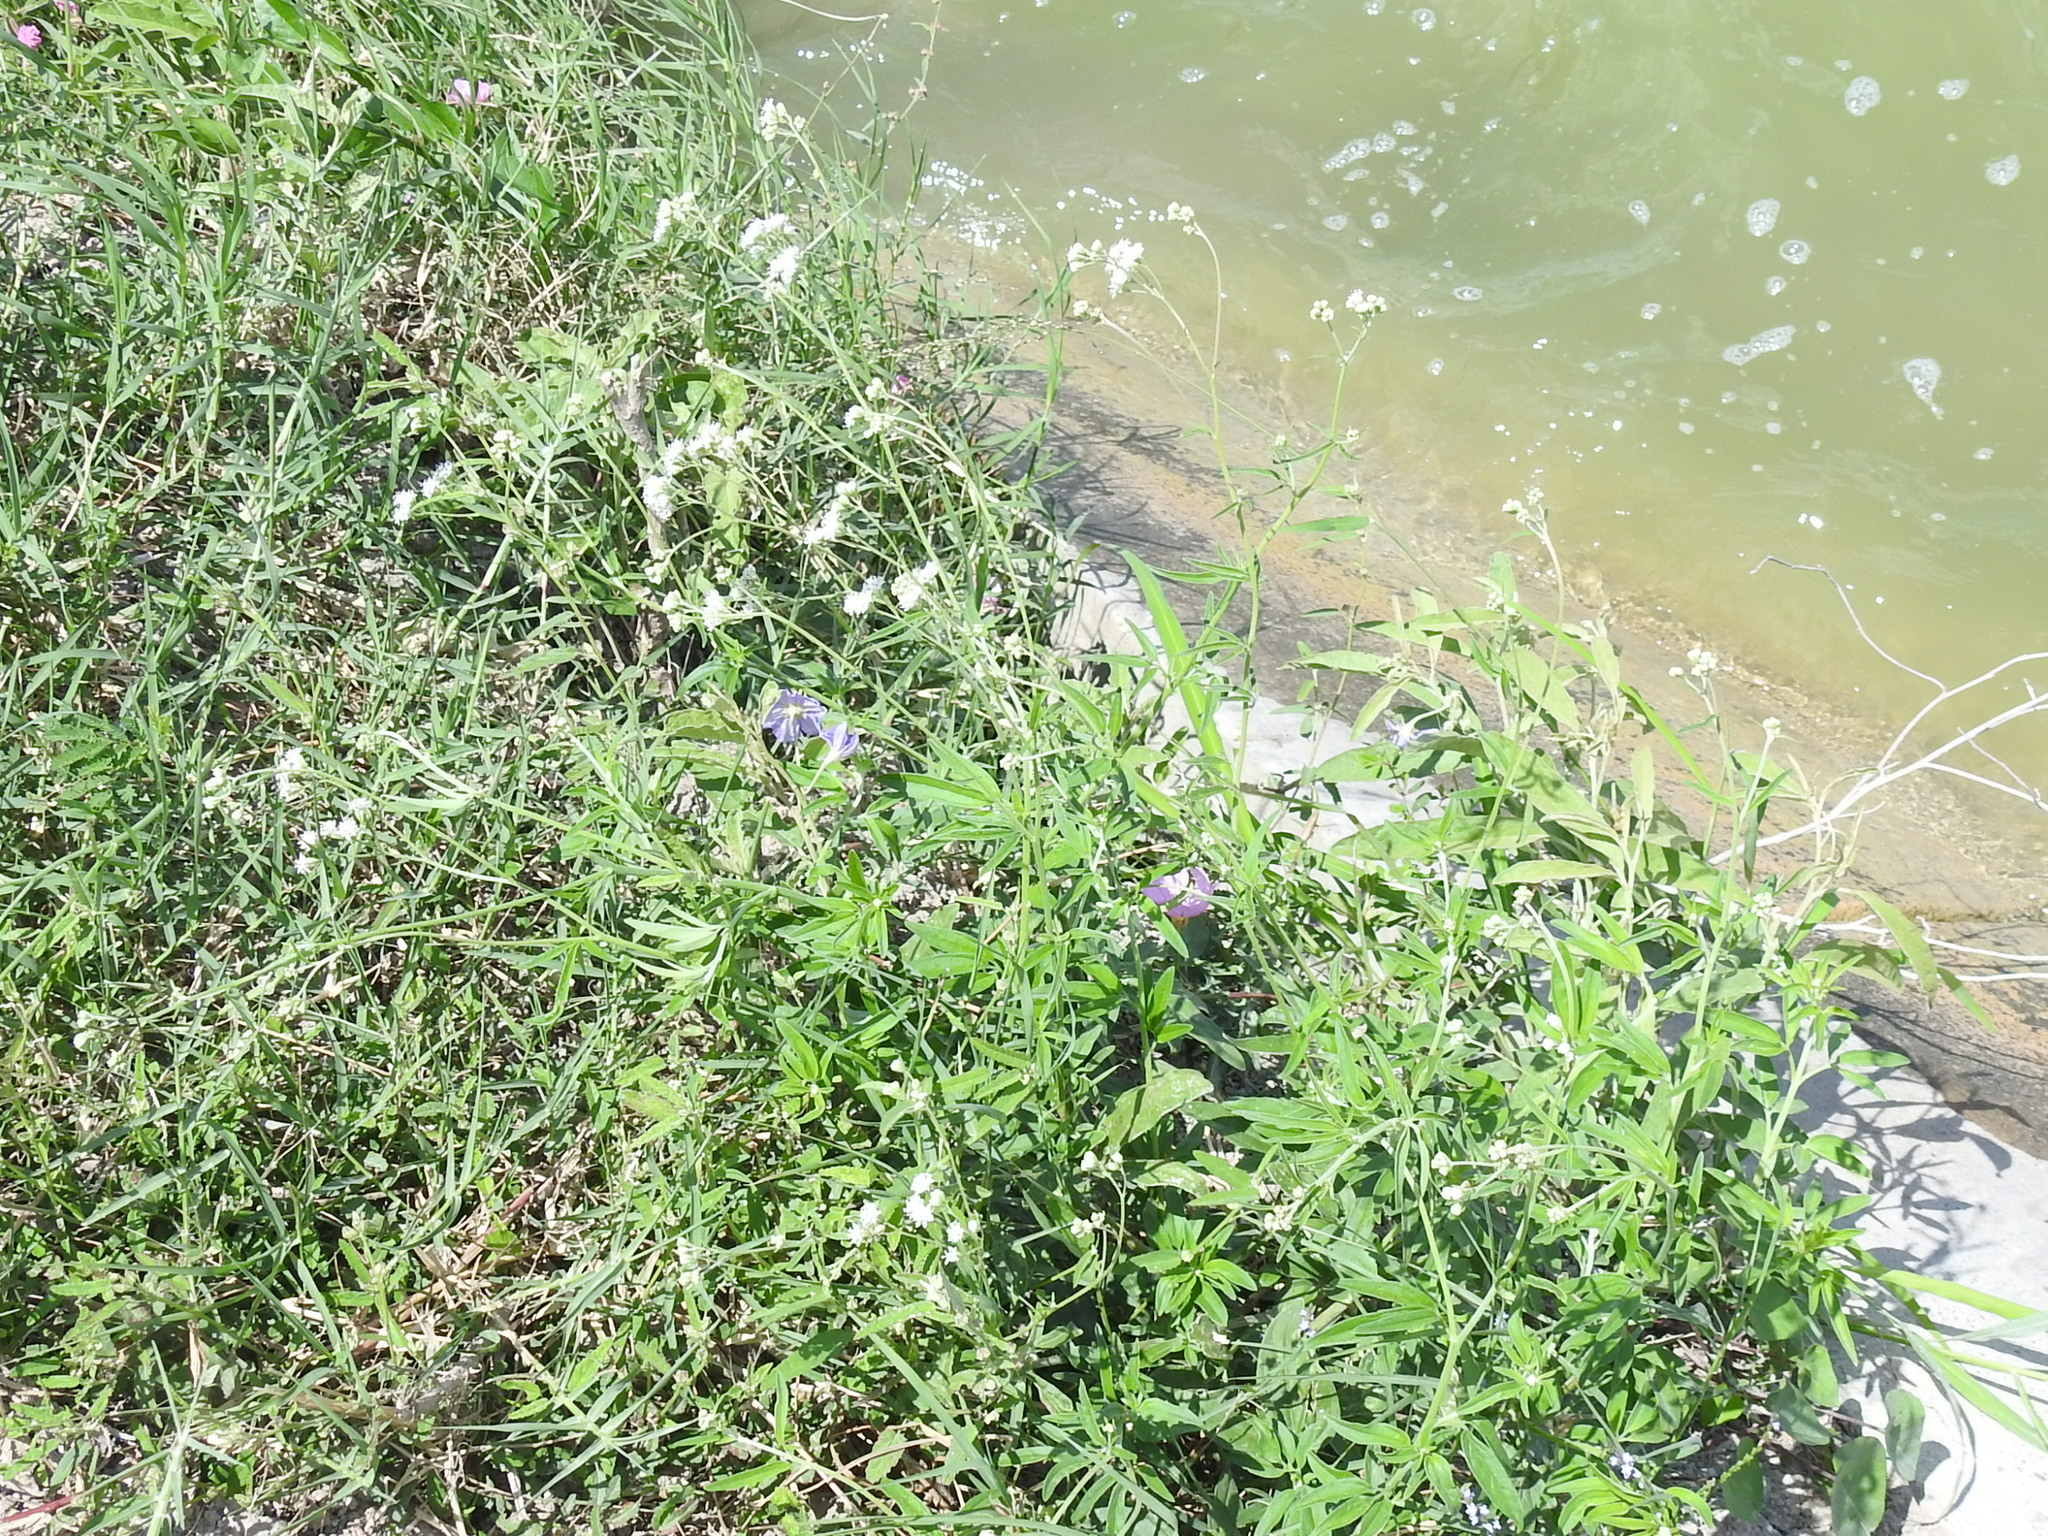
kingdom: Plantae
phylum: Tracheophyta
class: Magnoliopsida
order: Asterales
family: Asteraceae
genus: Florestina
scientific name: Florestina tripteris
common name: Sticky florestina
